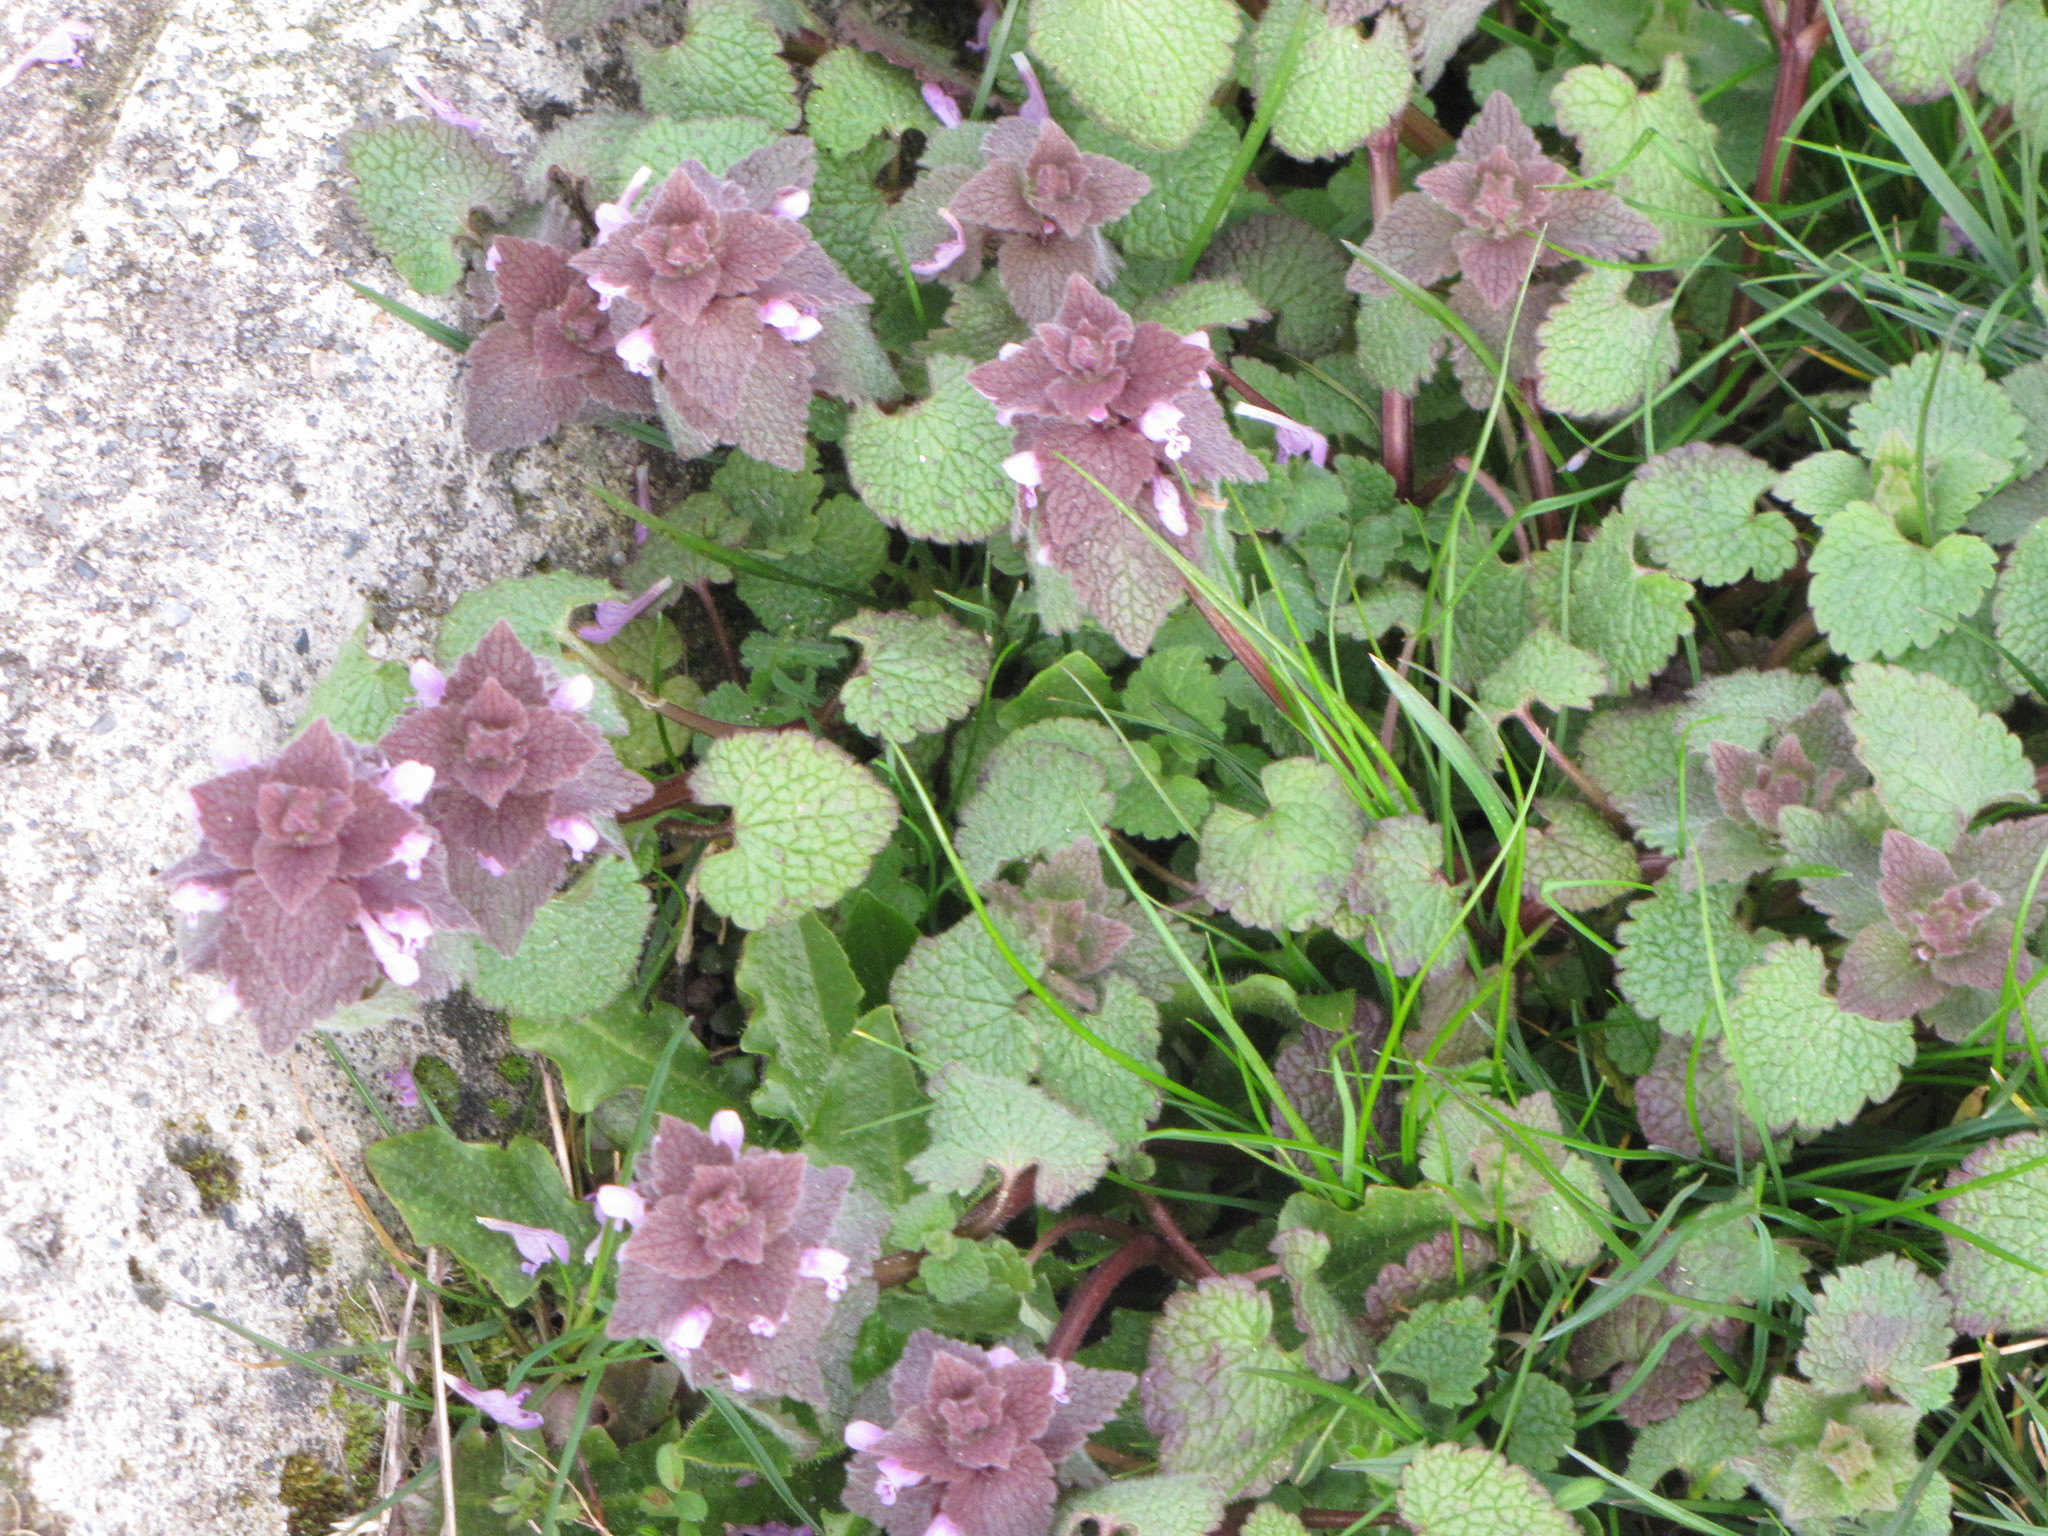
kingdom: Plantae
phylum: Tracheophyta
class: Magnoliopsida
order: Lamiales
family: Lamiaceae
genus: Lamium
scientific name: Lamium purpureum
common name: Red dead-nettle
